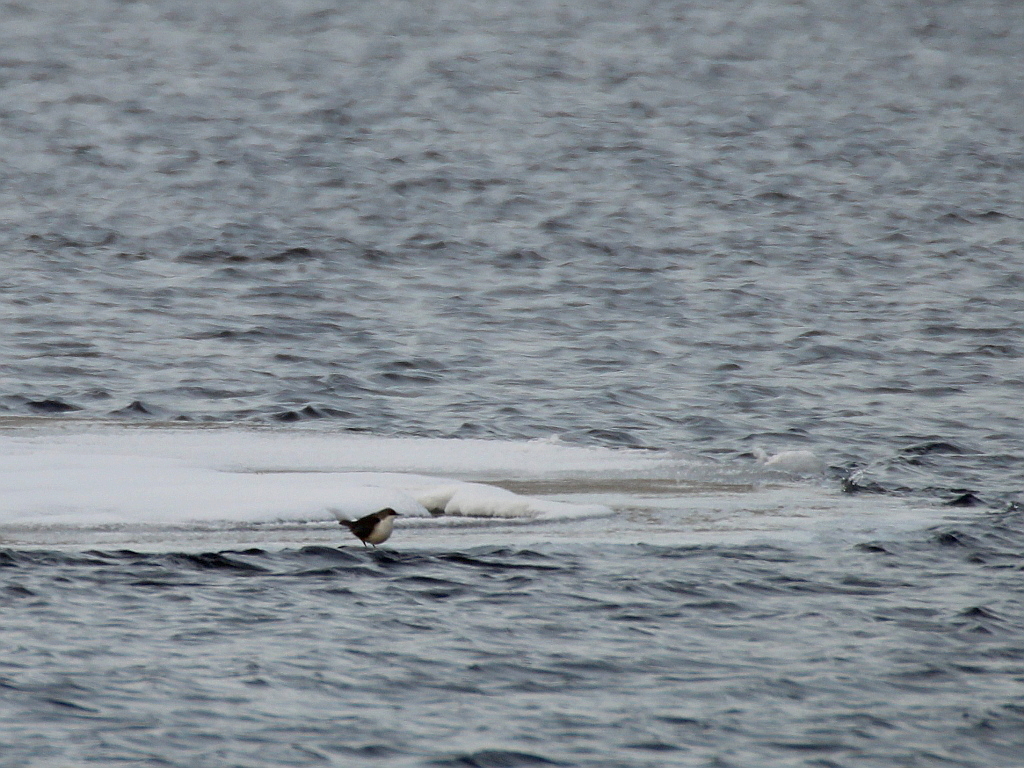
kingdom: Animalia
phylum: Chordata
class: Aves
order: Passeriformes
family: Cinclidae
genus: Cinclus
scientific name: Cinclus cinclus
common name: White-throated dipper
